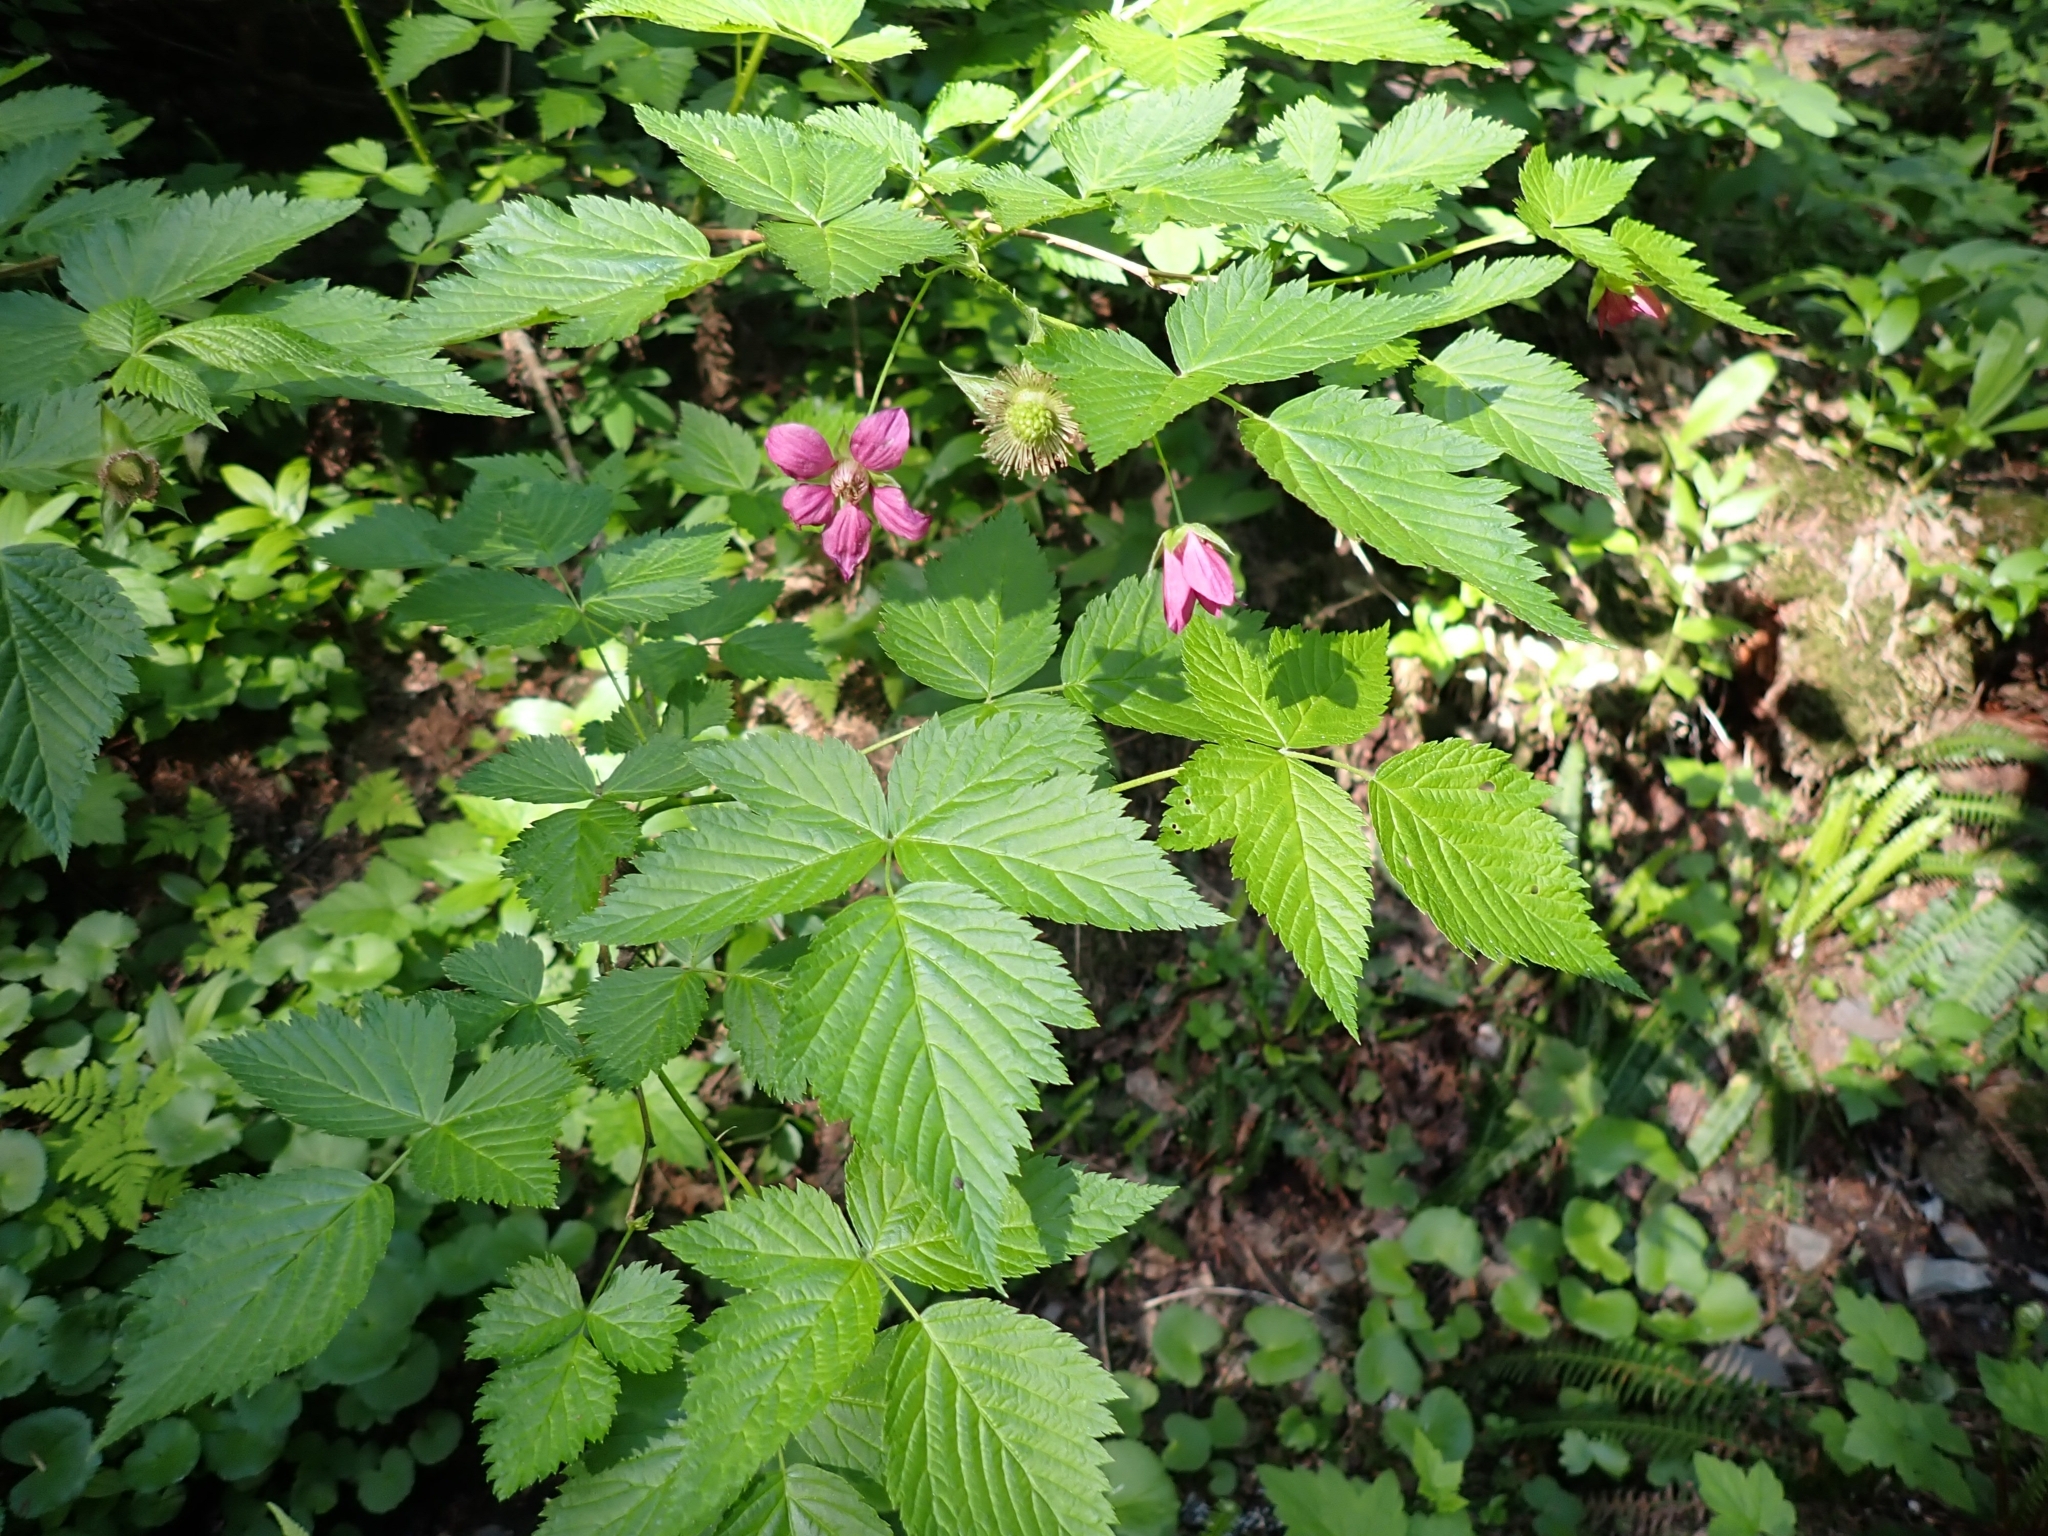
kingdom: Plantae
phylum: Tracheophyta
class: Magnoliopsida
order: Rosales
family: Rosaceae
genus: Rubus
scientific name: Rubus spectabilis
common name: Salmonberry
